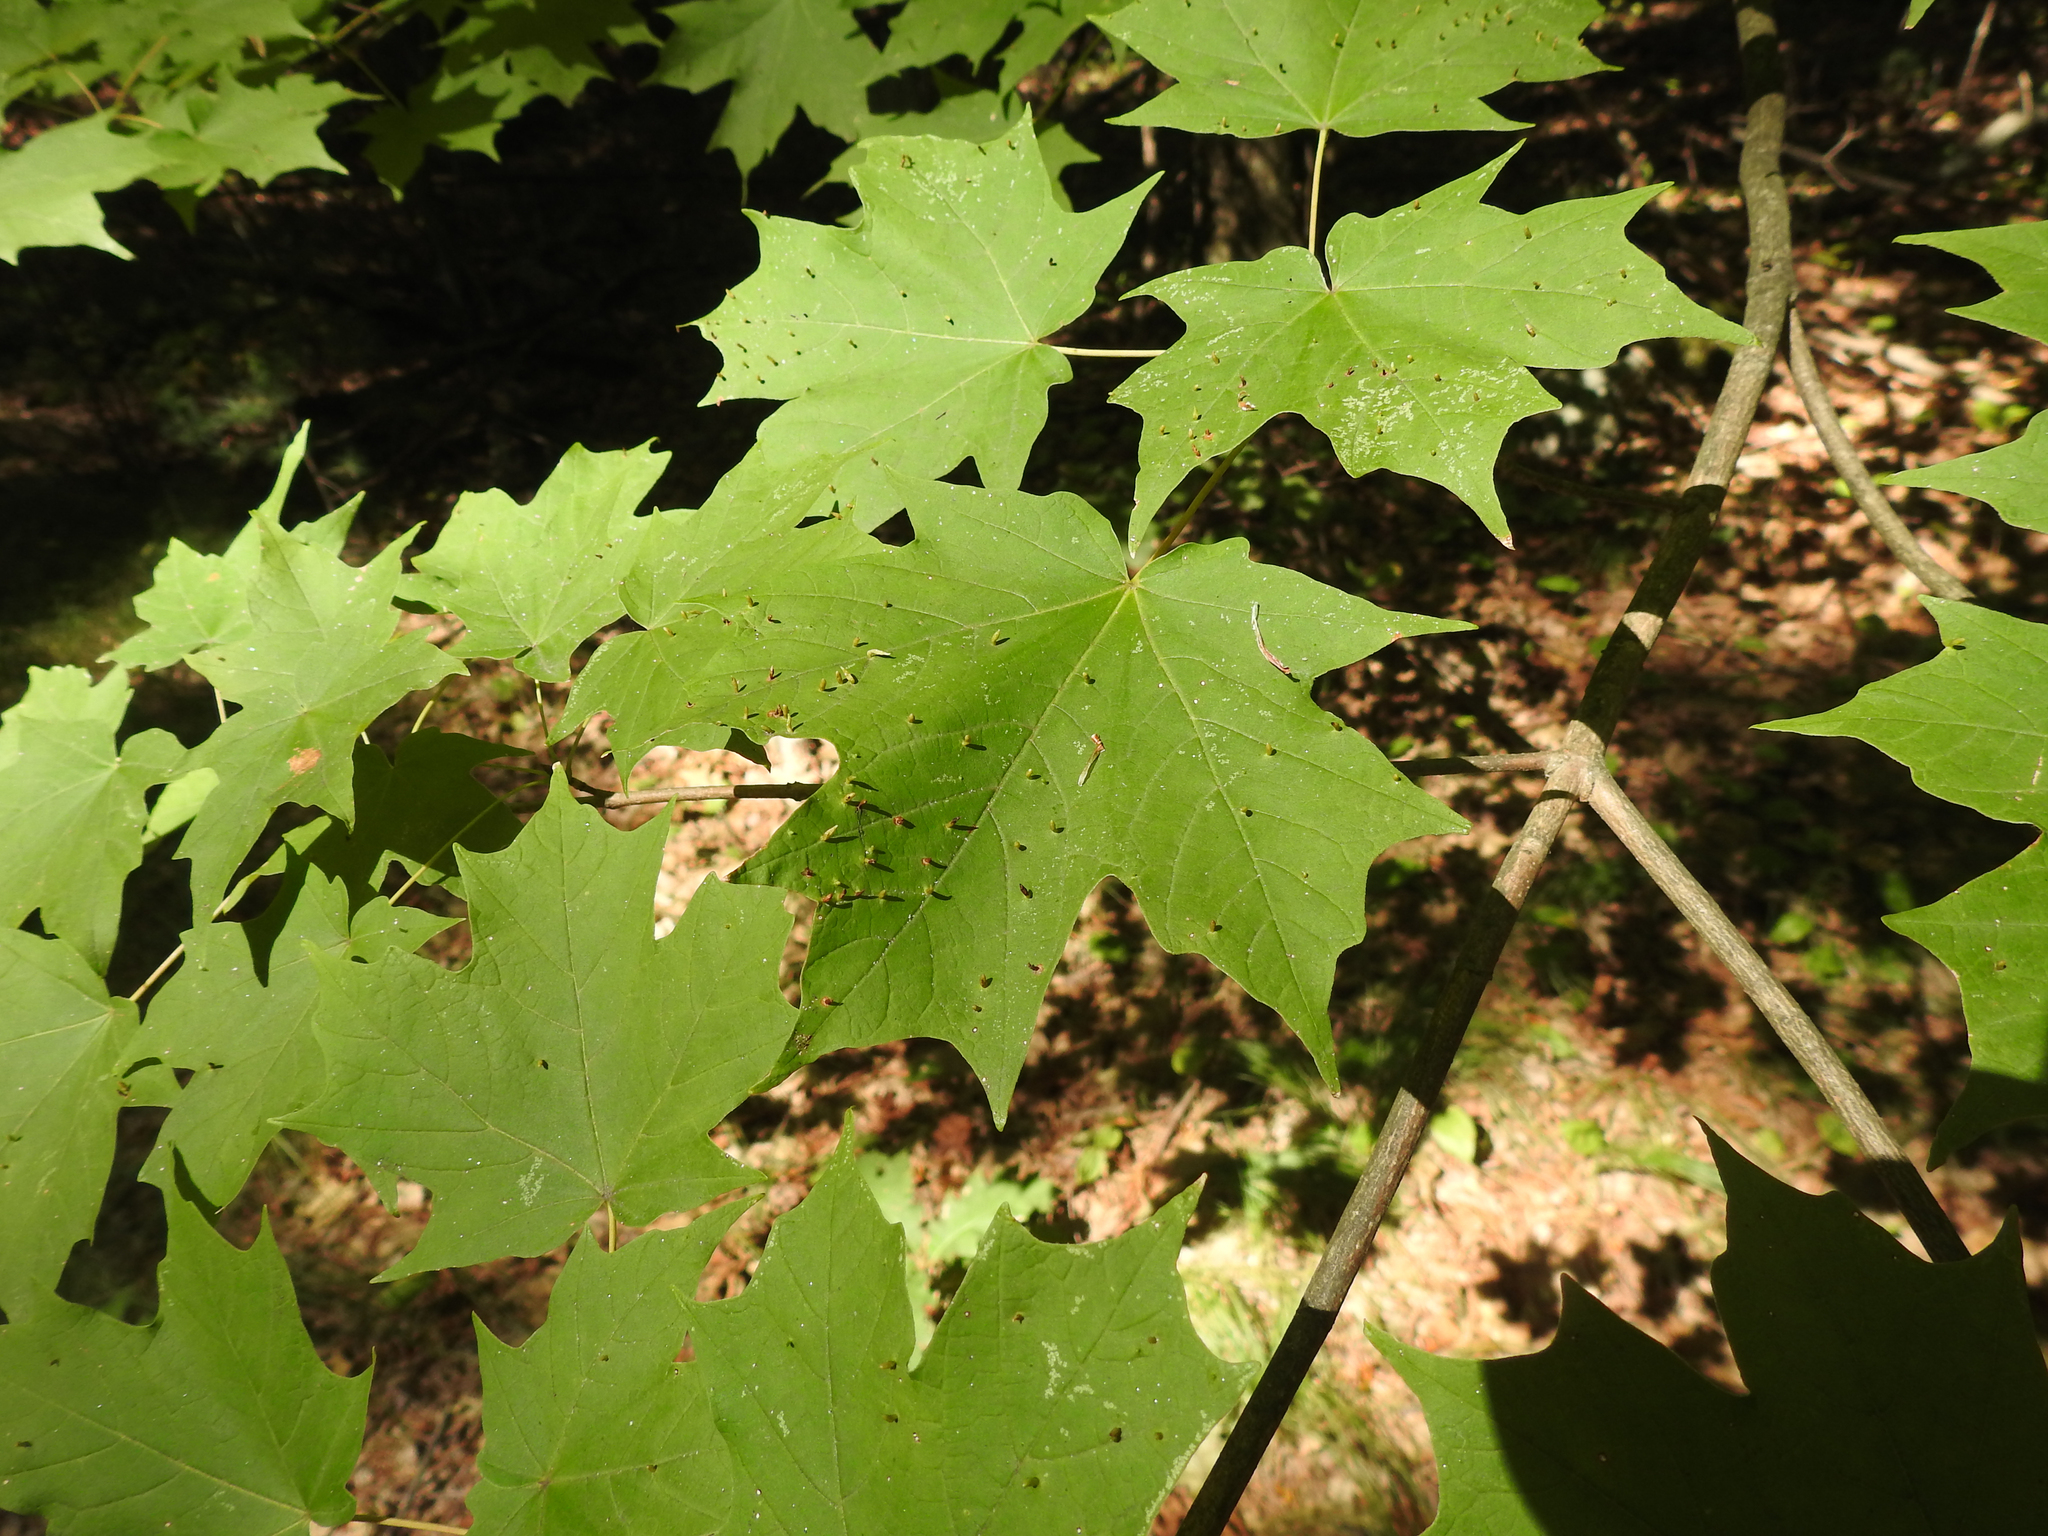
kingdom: Animalia
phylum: Arthropoda
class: Arachnida
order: Trombidiformes
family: Eriophyidae
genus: Vasates
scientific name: Vasates aceriscrumena
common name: Maple spindle gall mite
